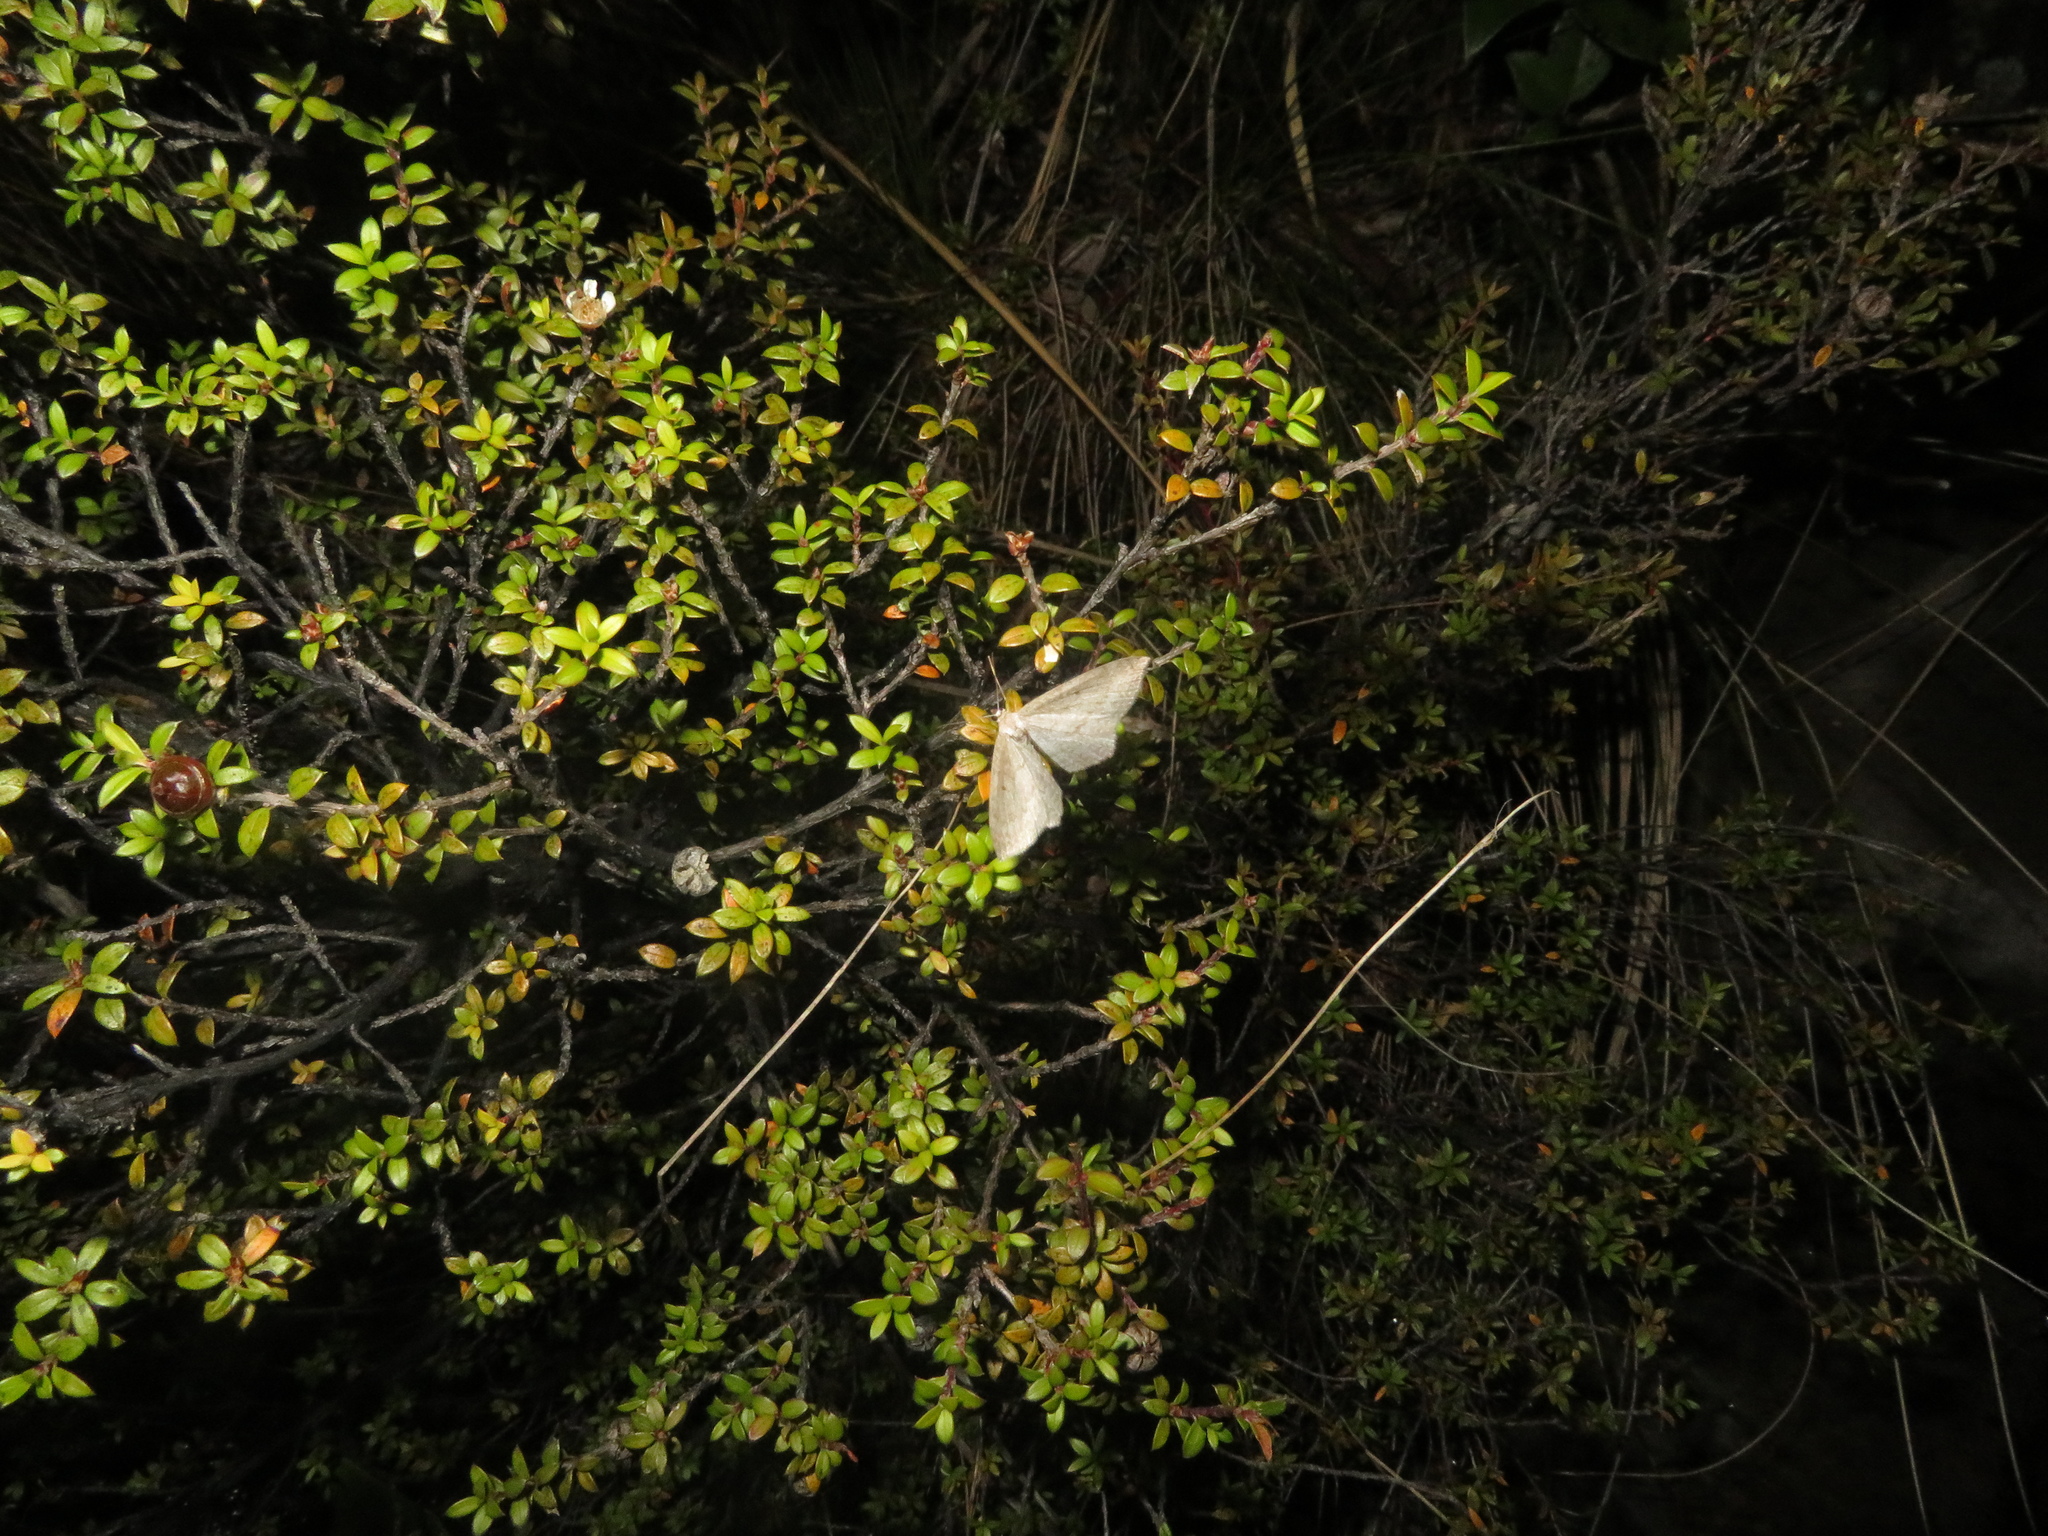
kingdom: Animalia
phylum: Arthropoda
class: Insecta
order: Lepidoptera
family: Geometridae
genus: Poecilasthena
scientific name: Poecilasthena schistaria
